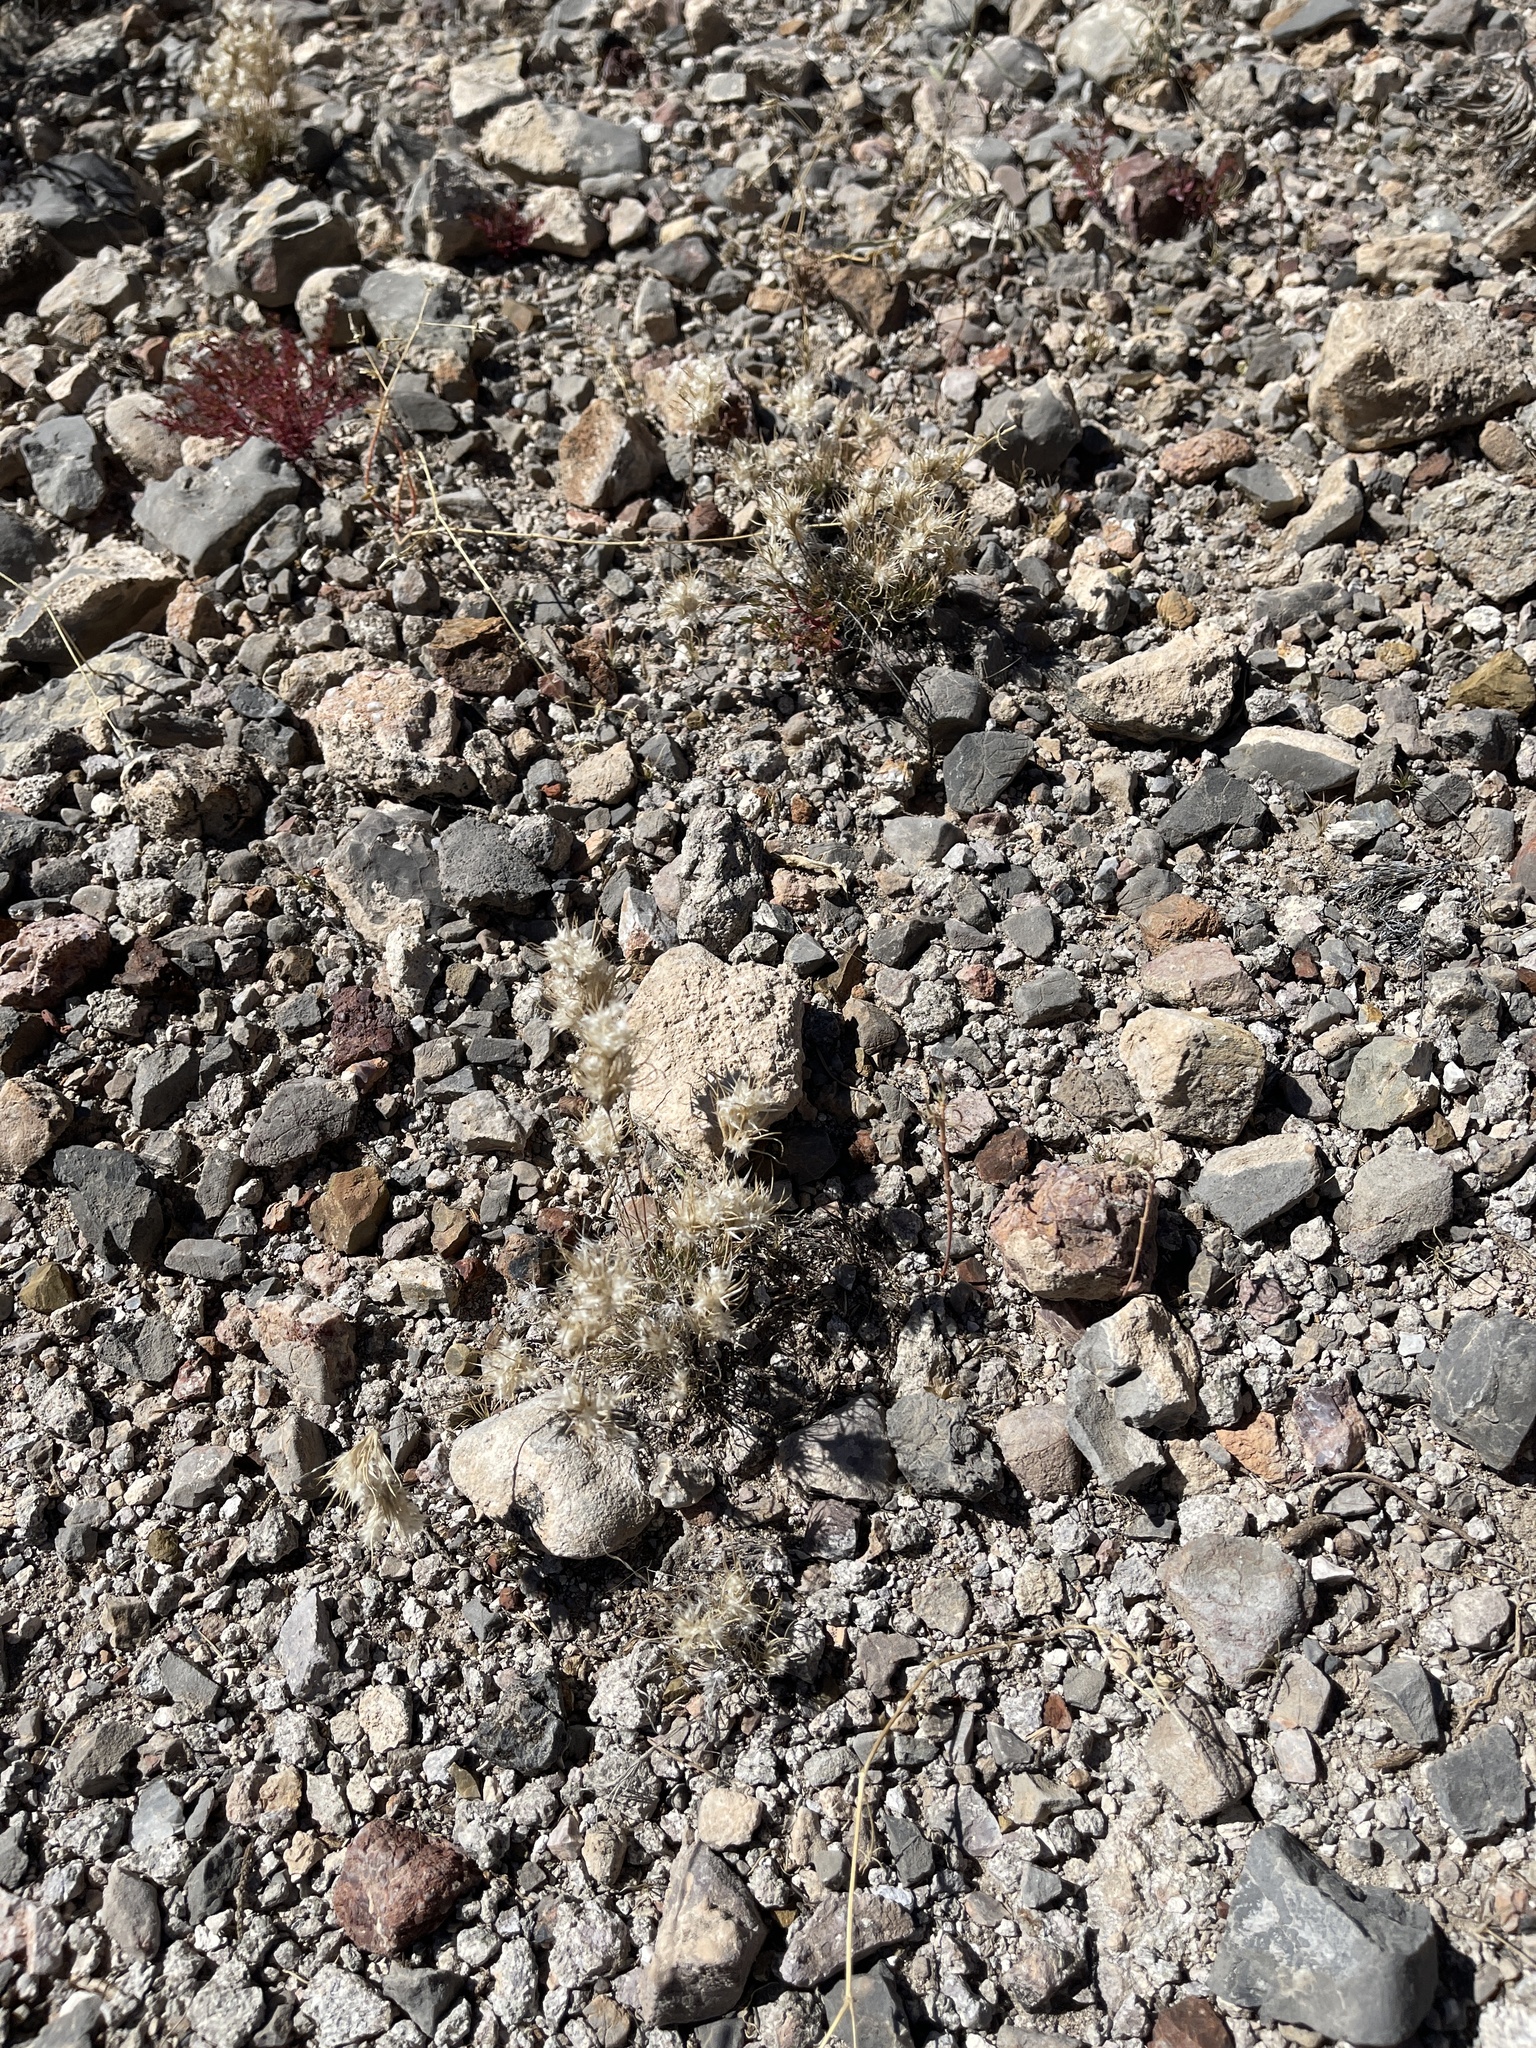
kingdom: Plantae
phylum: Tracheophyta
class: Liliopsida
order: Poales
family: Poaceae
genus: Dasyochloa
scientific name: Dasyochloa pulchella
